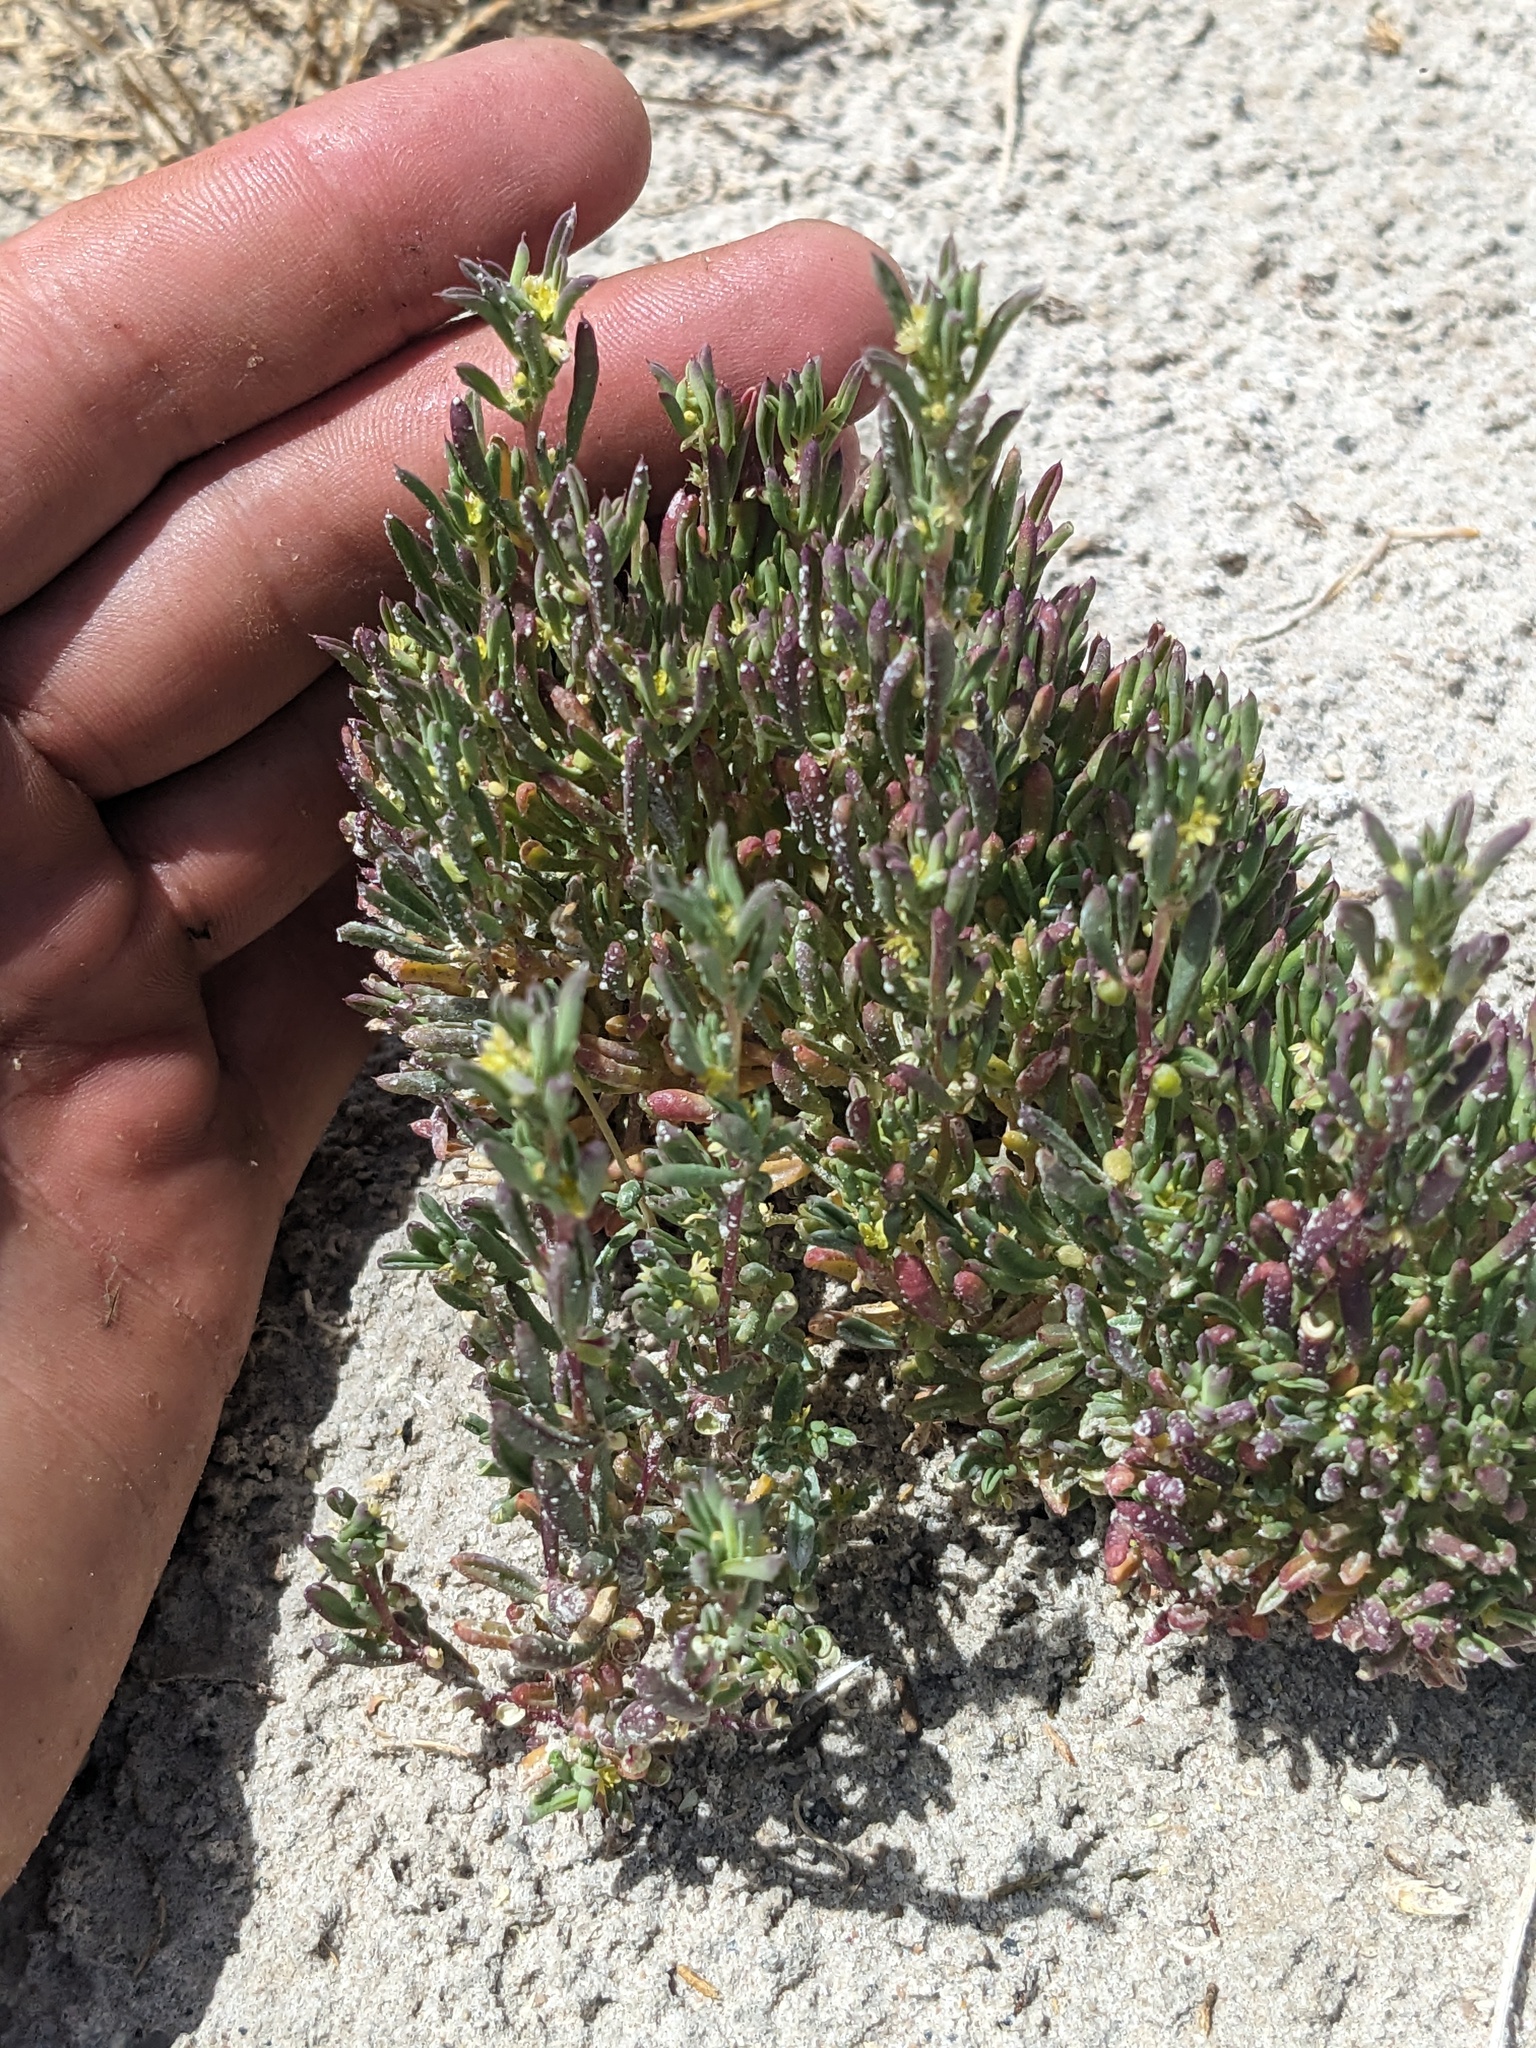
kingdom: Plantae
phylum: Tracheophyta
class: Magnoliopsida
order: Brassicales
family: Cleomaceae
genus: Cleomella
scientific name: Cleomella brevipes
